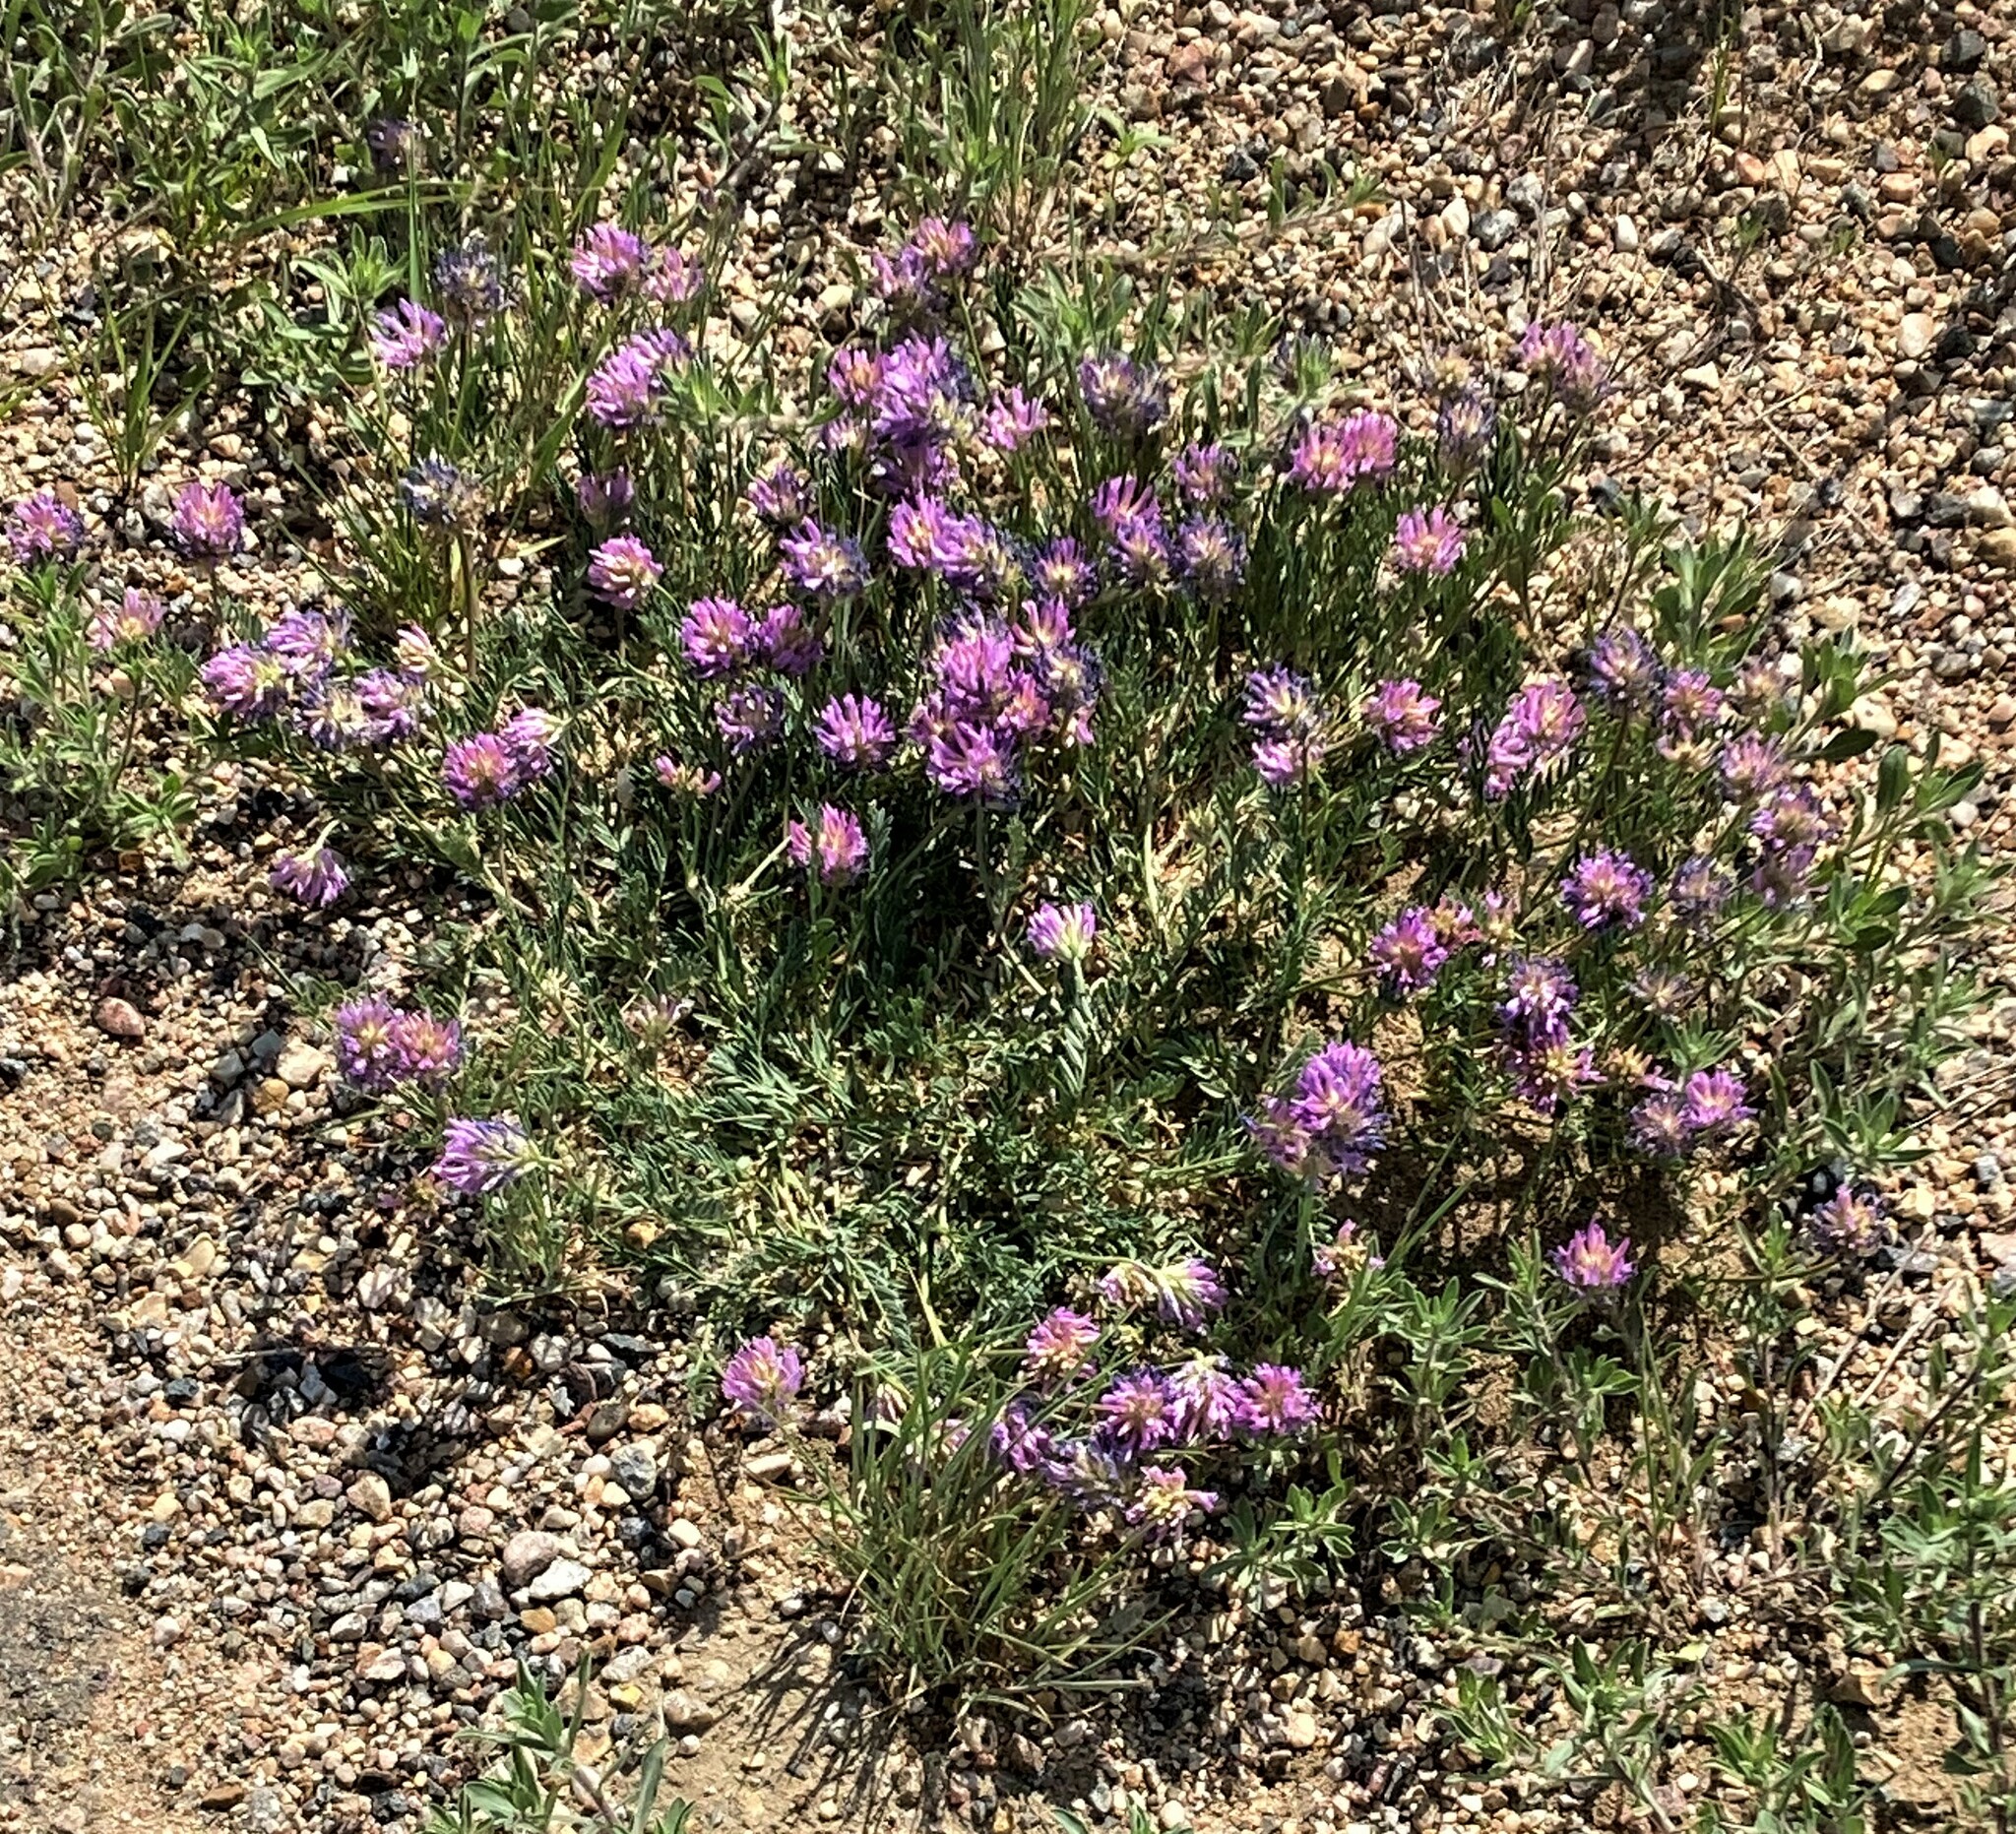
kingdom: Plantae
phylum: Tracheophyta
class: Magnoliopsida
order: Fabales
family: Fabaceae
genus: Astragalus
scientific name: Astragalus laxmannii
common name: Laxmann's milk-vetch
